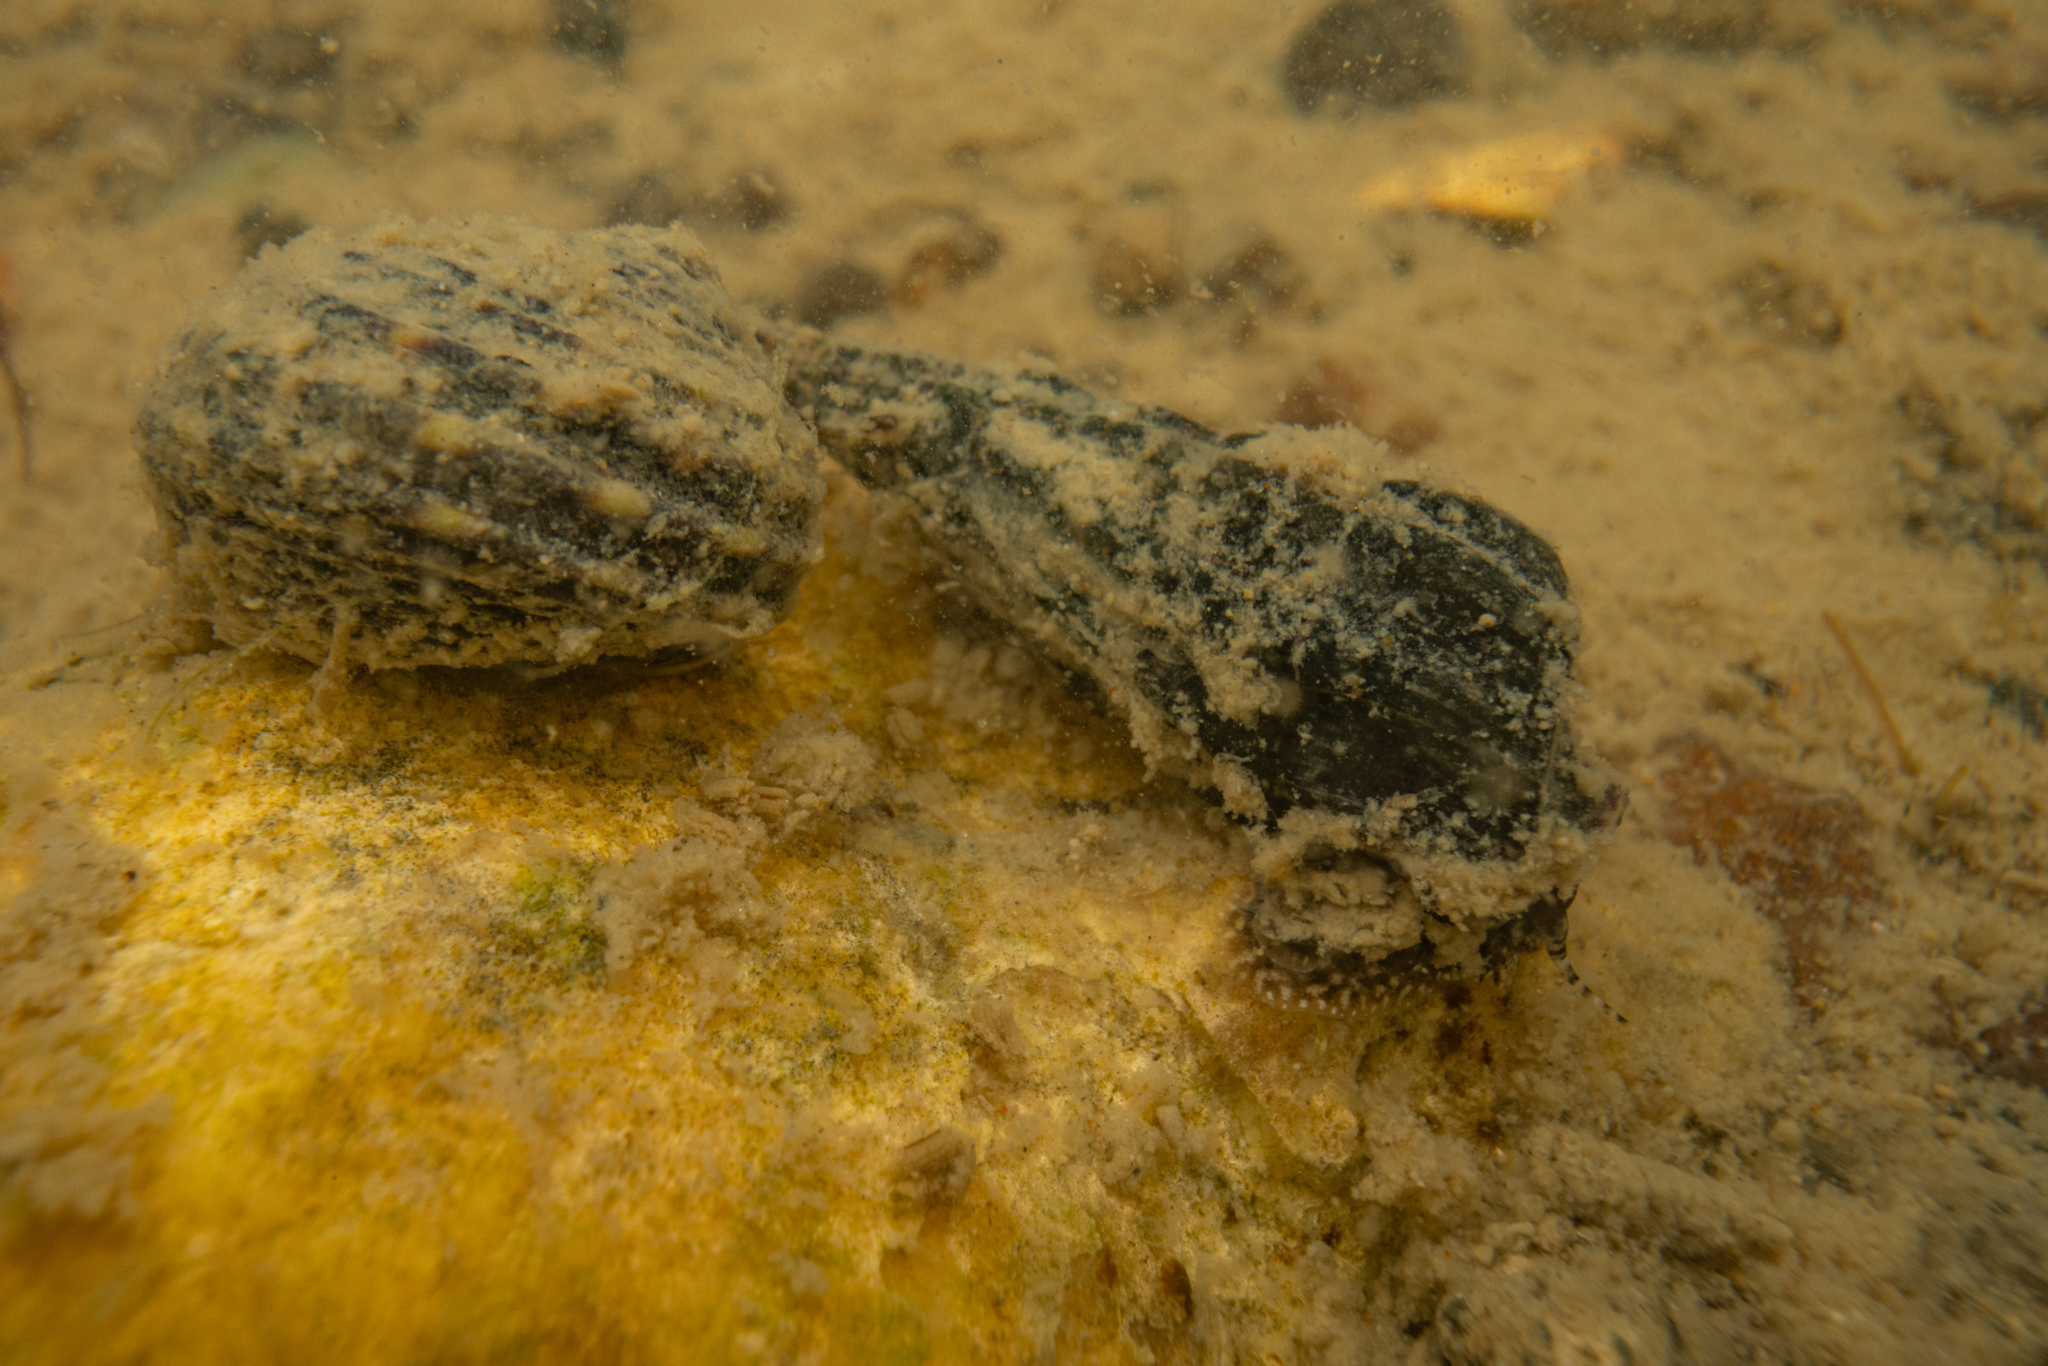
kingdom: Animalia
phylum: Mollusca
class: Gastropoda
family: Batillariidae
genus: Zeacumantus
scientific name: Zeacumantus subcarinatus
